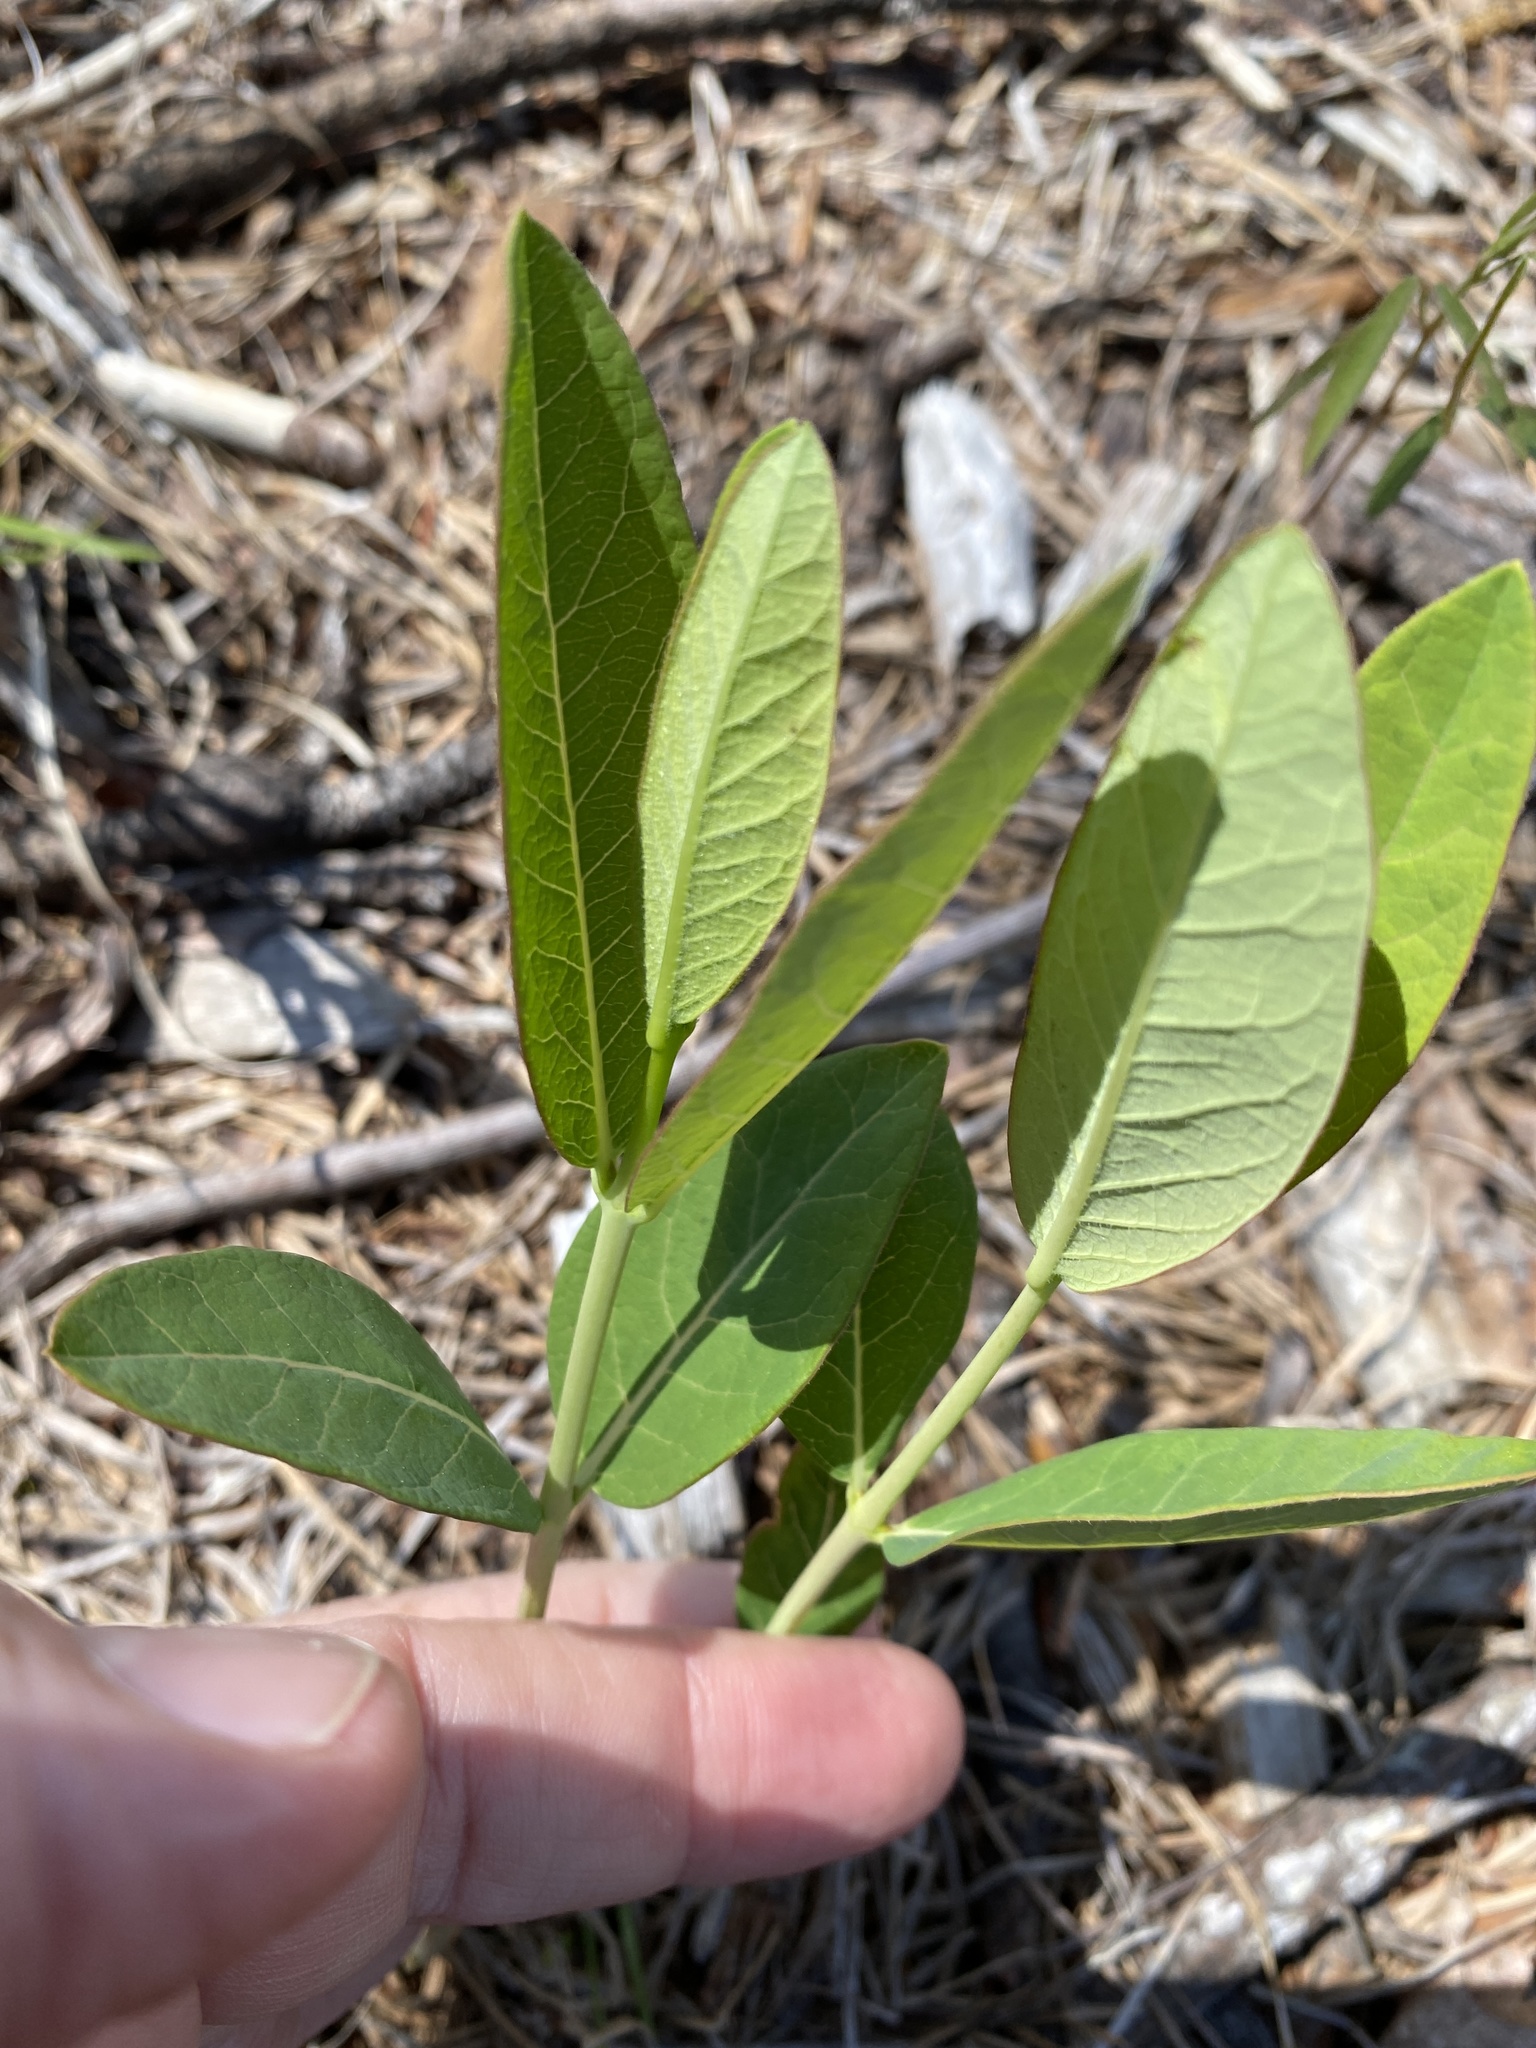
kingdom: Plantae
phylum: Tracheophyta
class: Magnoliopsida
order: Gentianales
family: Apocynaceae
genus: Apocynum
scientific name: Apocynum cannabinum
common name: Hemp dogbane
